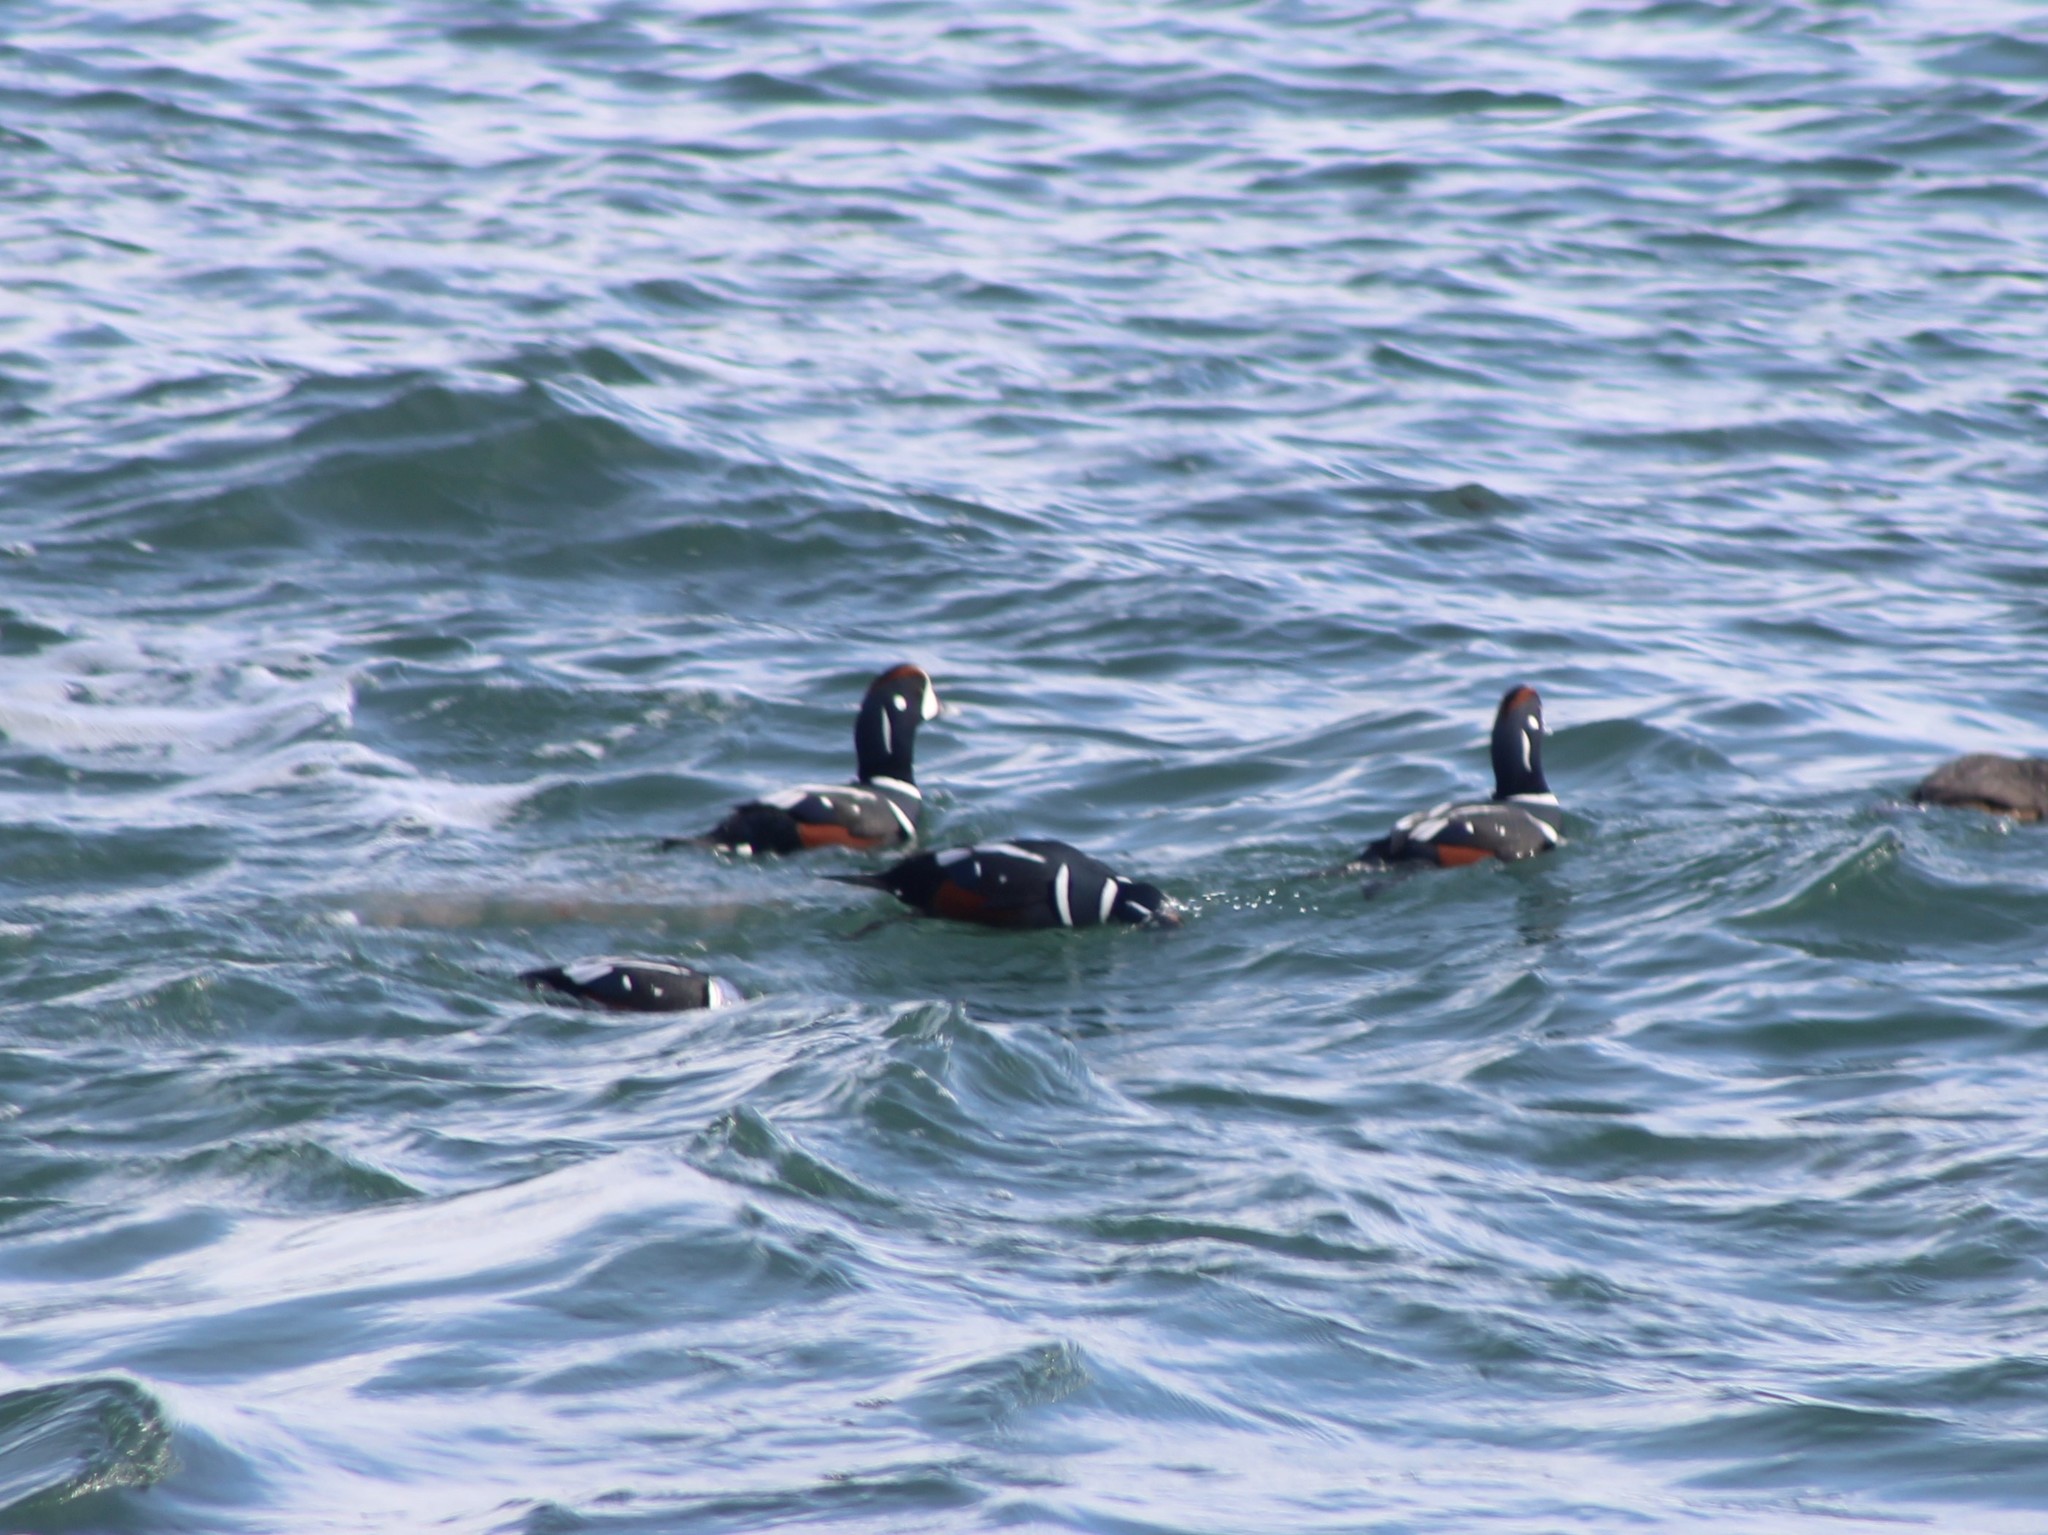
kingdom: Animalia
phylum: Chordata
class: Aves
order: Anseriformes
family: Anatidae
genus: Histrionicus
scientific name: Histrionicus histrionicus
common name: Harlequin duck
